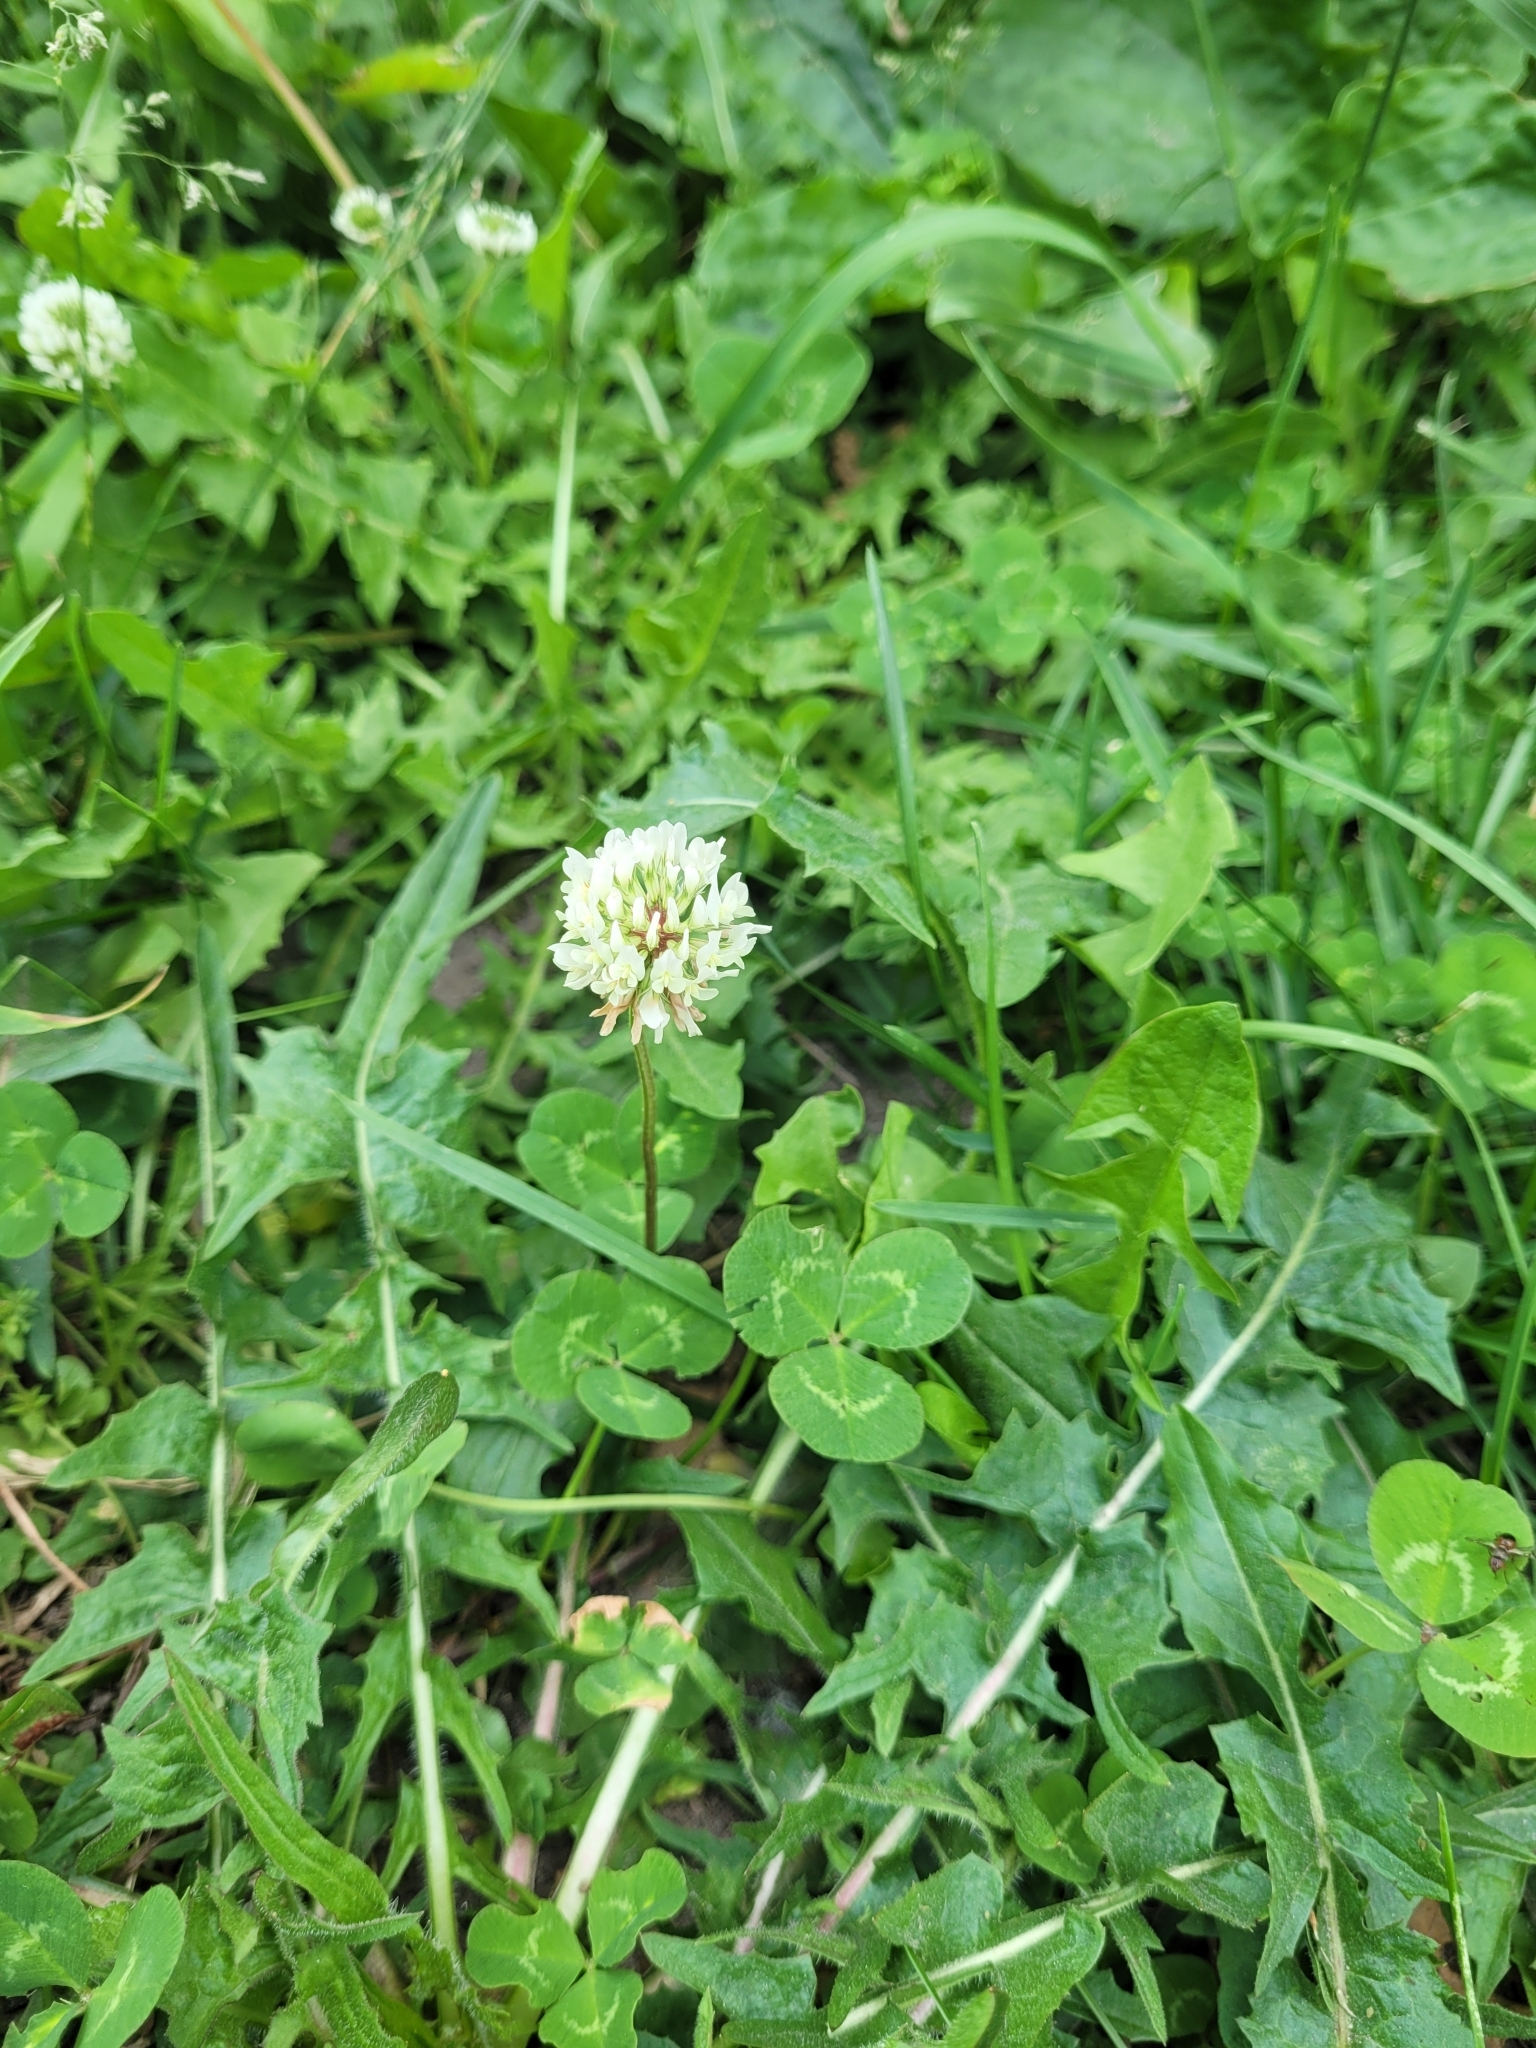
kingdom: Plantae
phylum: Tracheophyta
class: Magnoliopsida
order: Fabales
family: Fabaceae
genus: Trifolium
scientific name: Trifolium repens
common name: White clover
